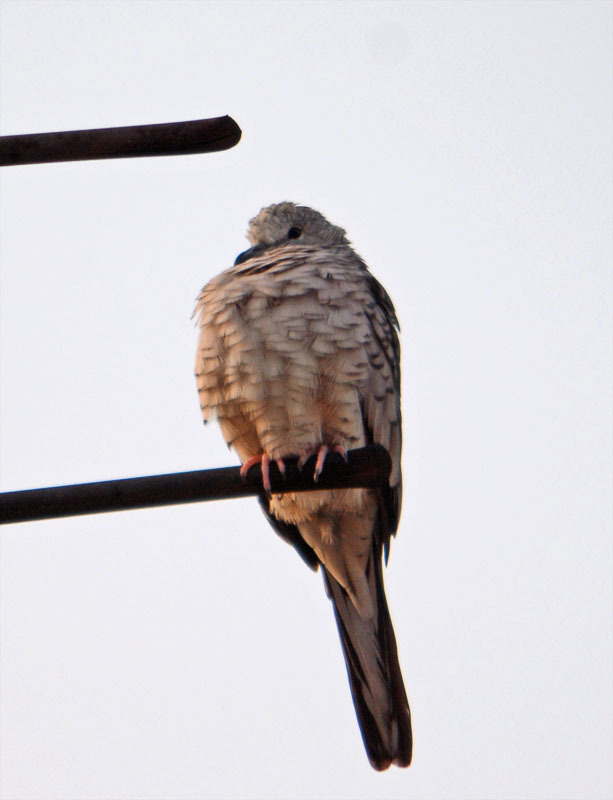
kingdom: Animalia
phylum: Chordata
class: Aves
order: Columbiformes
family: Columbidae
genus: Columbina
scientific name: Columbina inca
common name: Inca dove
